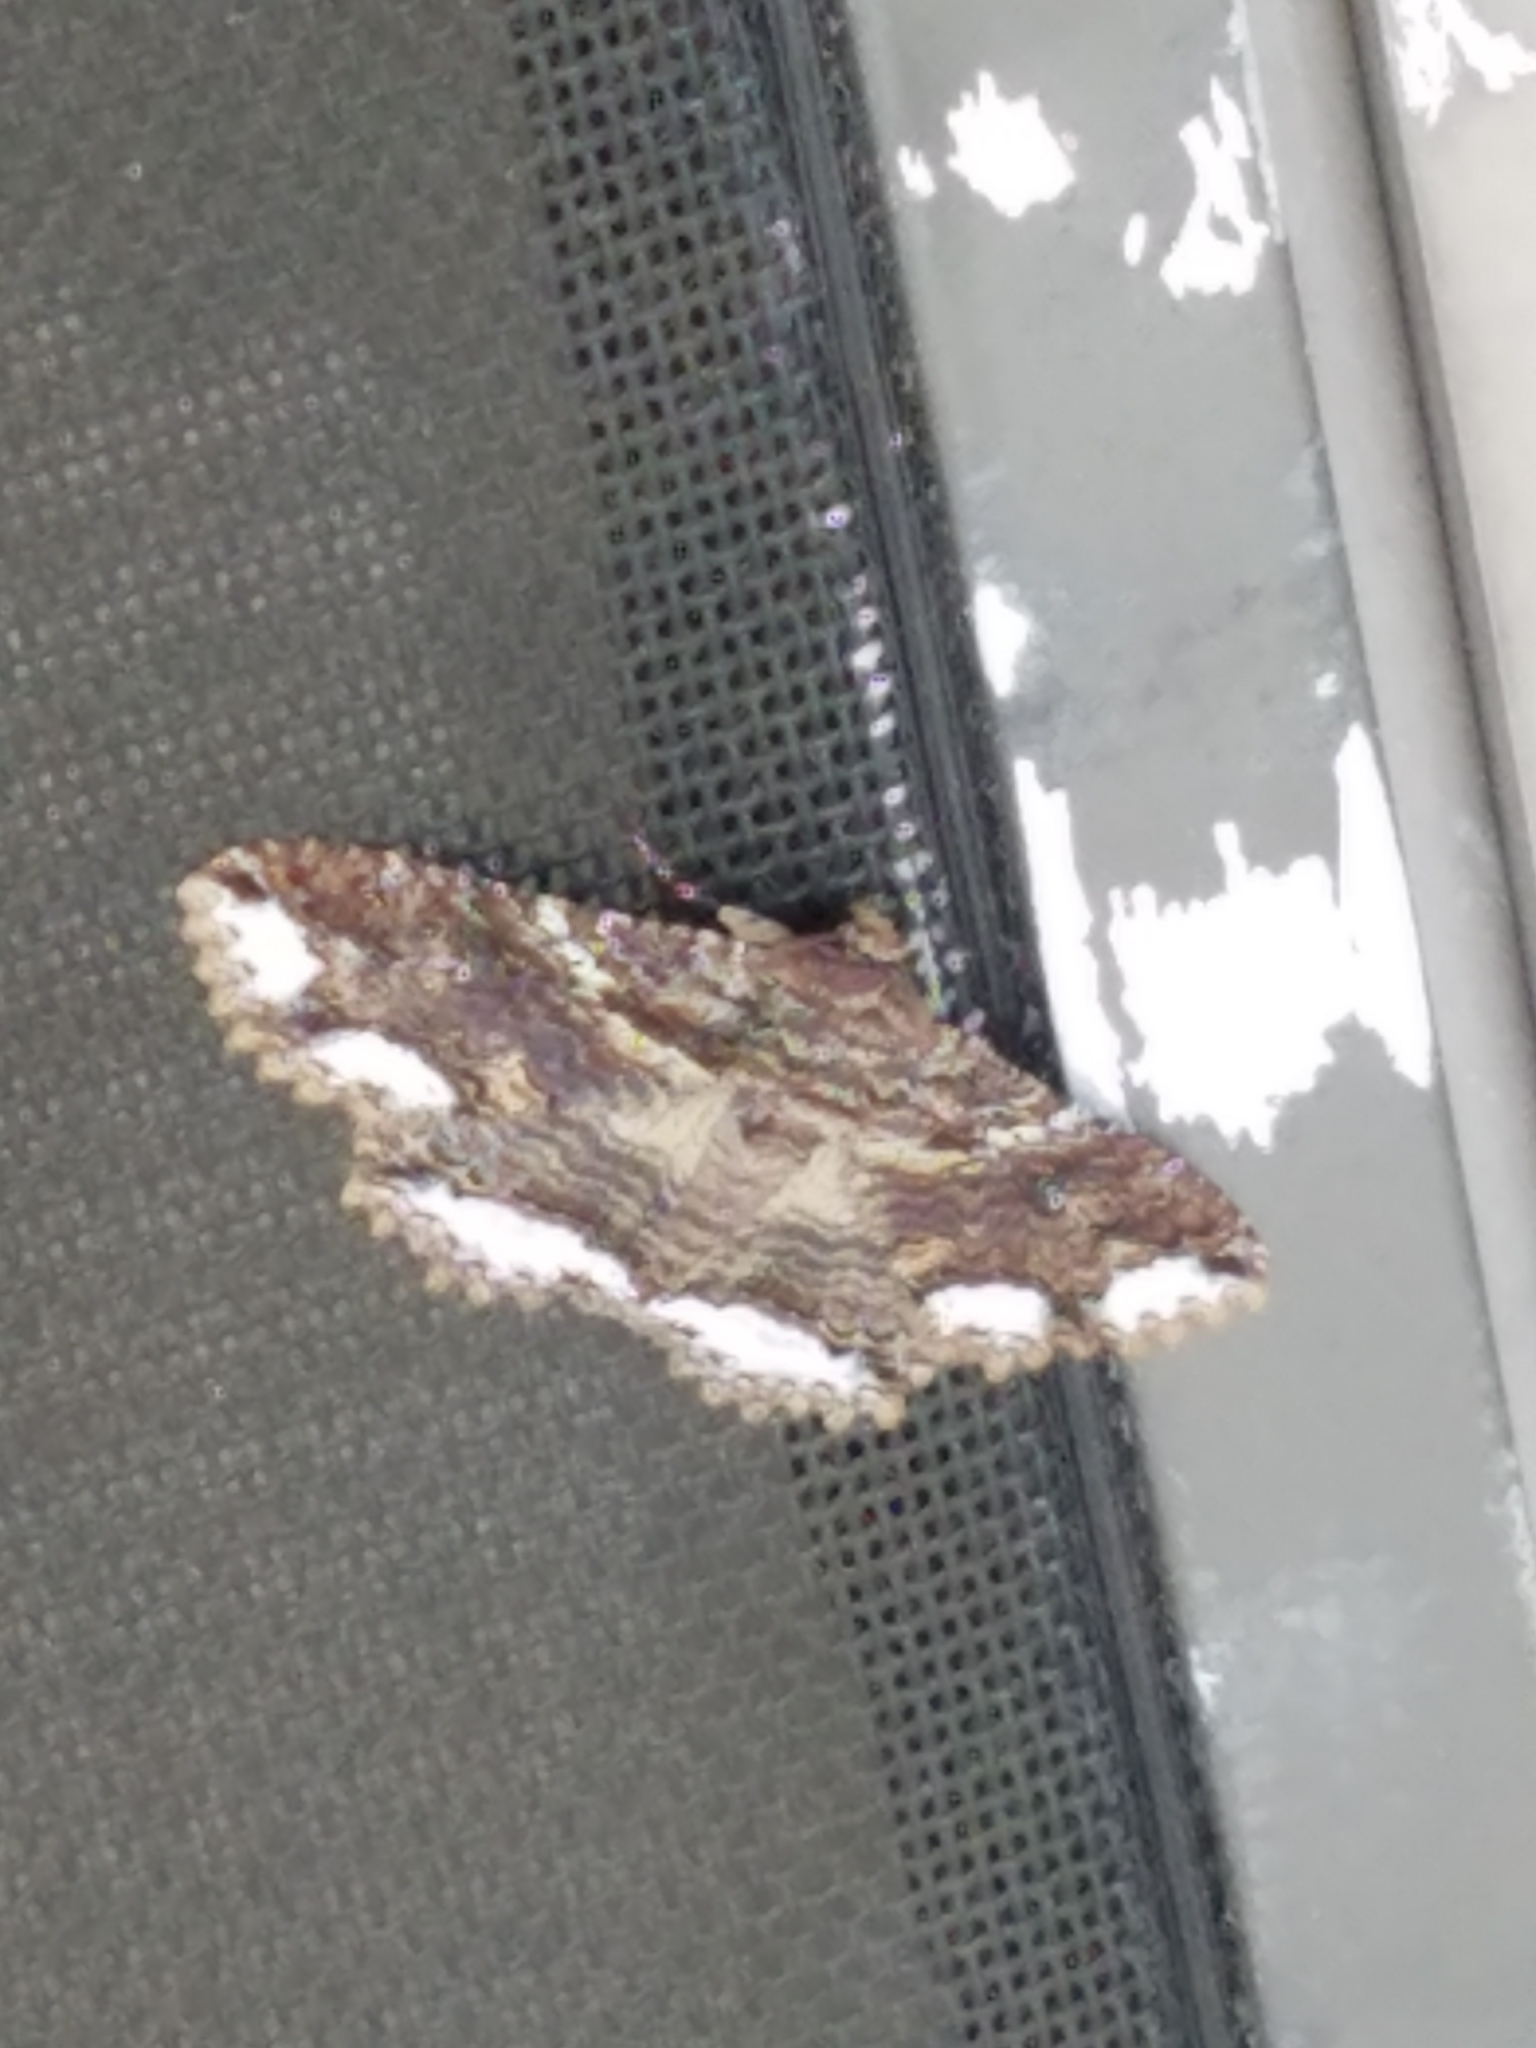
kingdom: Animalia
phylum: Arthropoda
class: Insecta
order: Lepidoptera
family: Erebidae
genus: Zale
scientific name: Zale lunata
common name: Lunate zale moth
